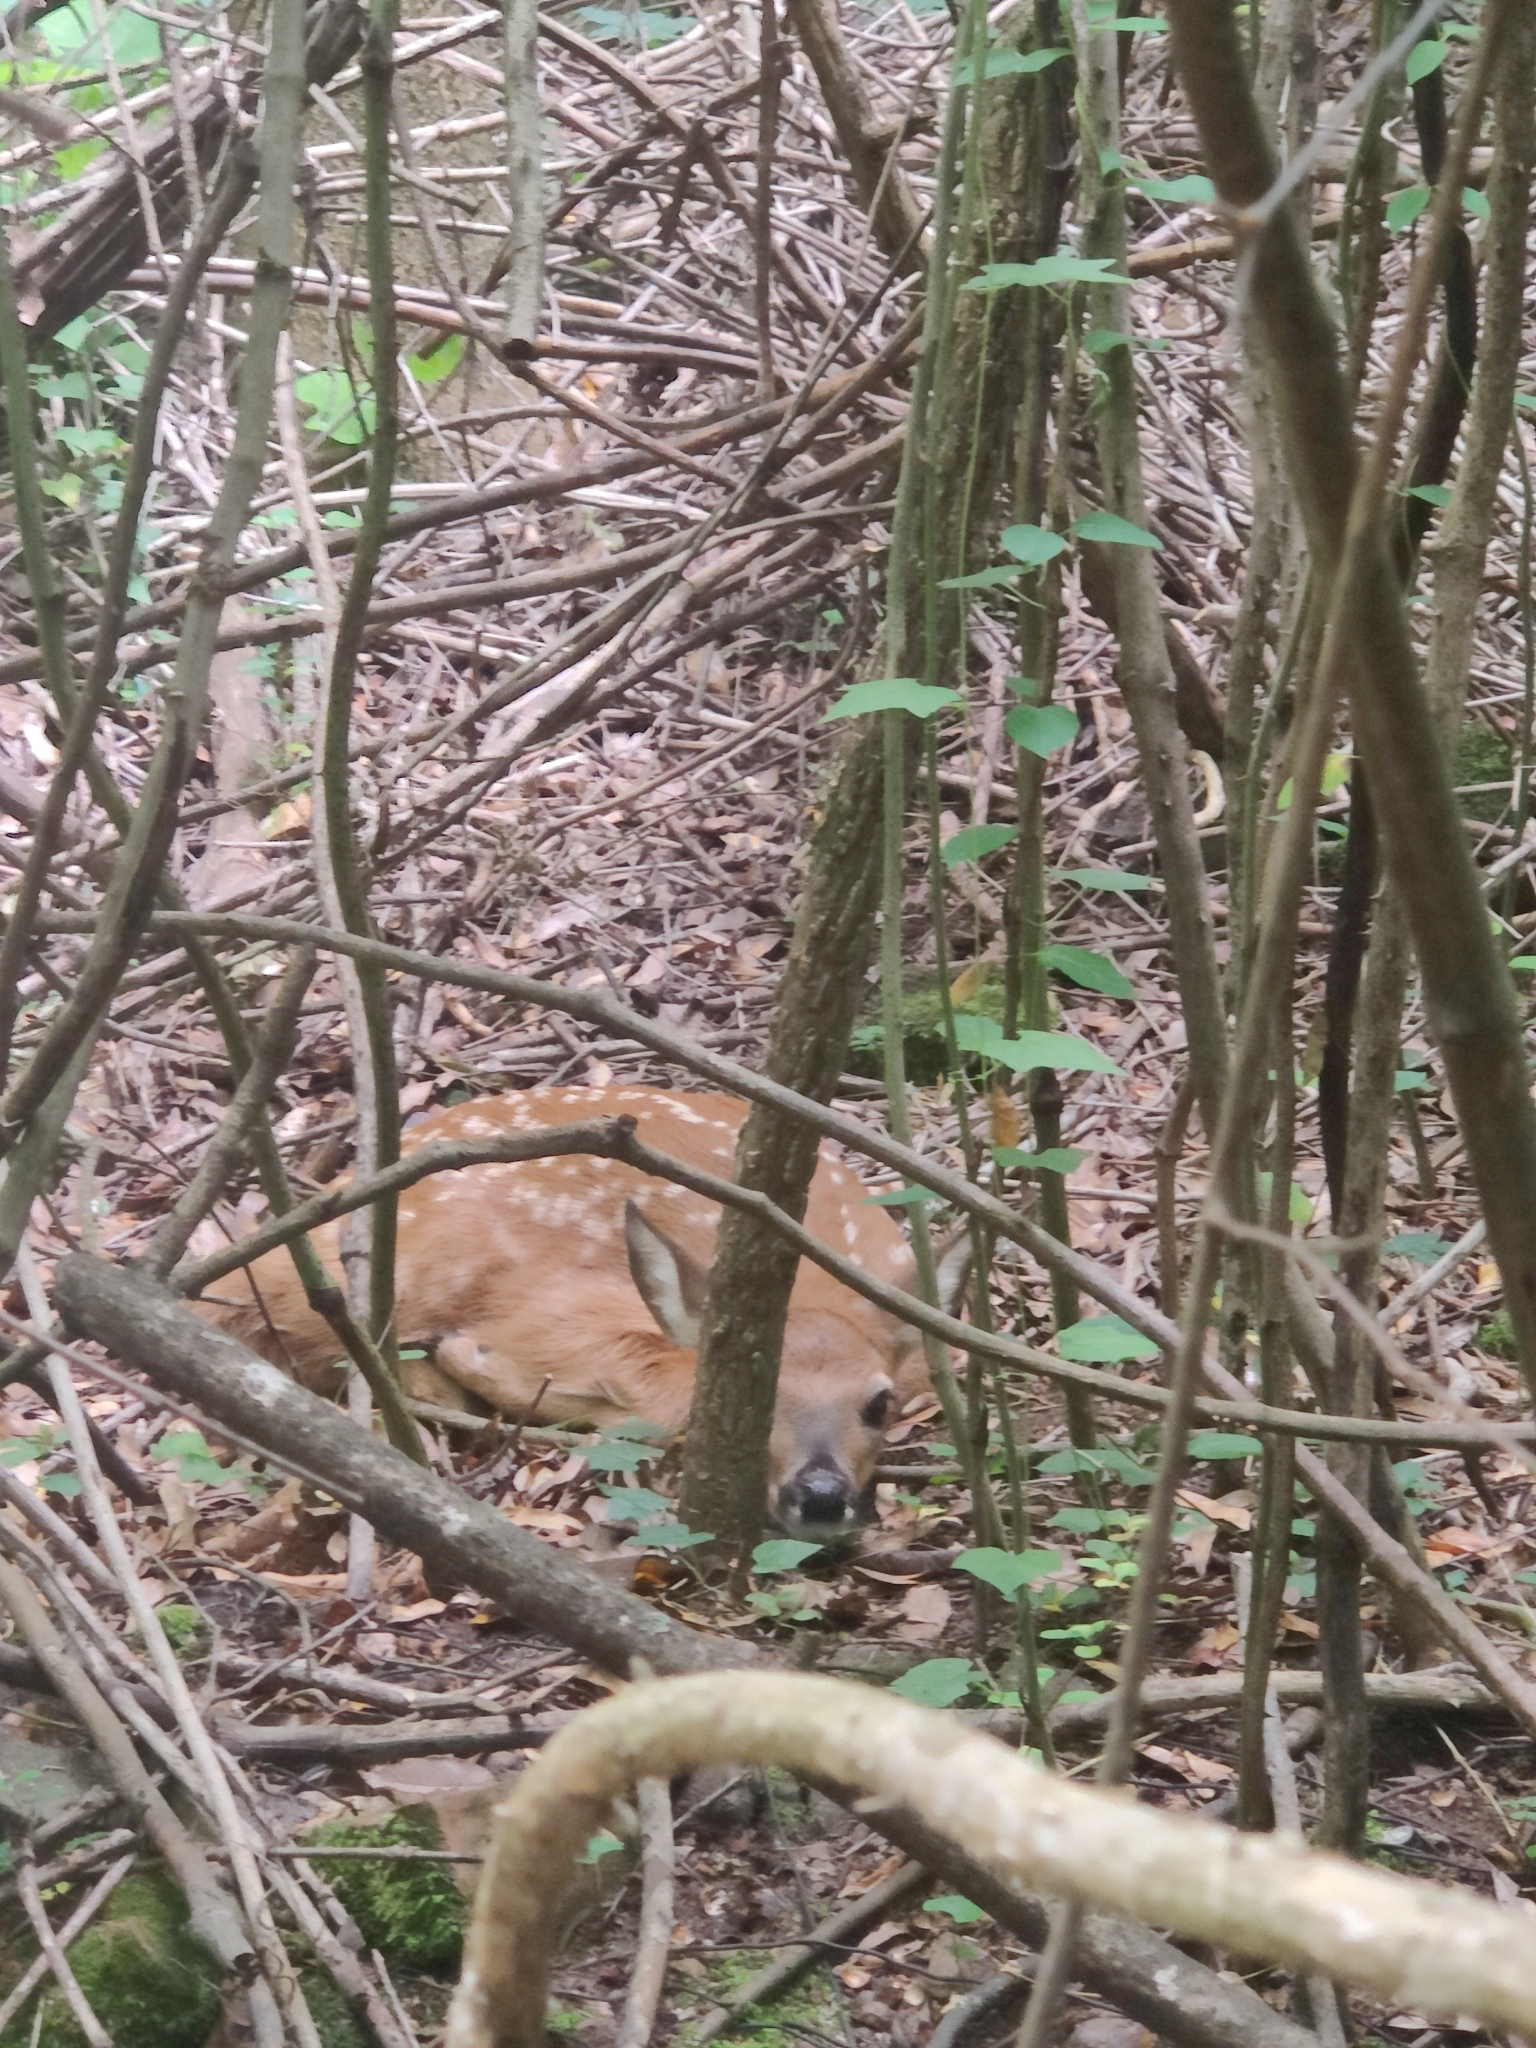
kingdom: Animalia
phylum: Chordata
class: Mammalia
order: Artiodactyla
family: Cervidae
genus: Odocoileus
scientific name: Odocoileus virginianus
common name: White-tailed deer
